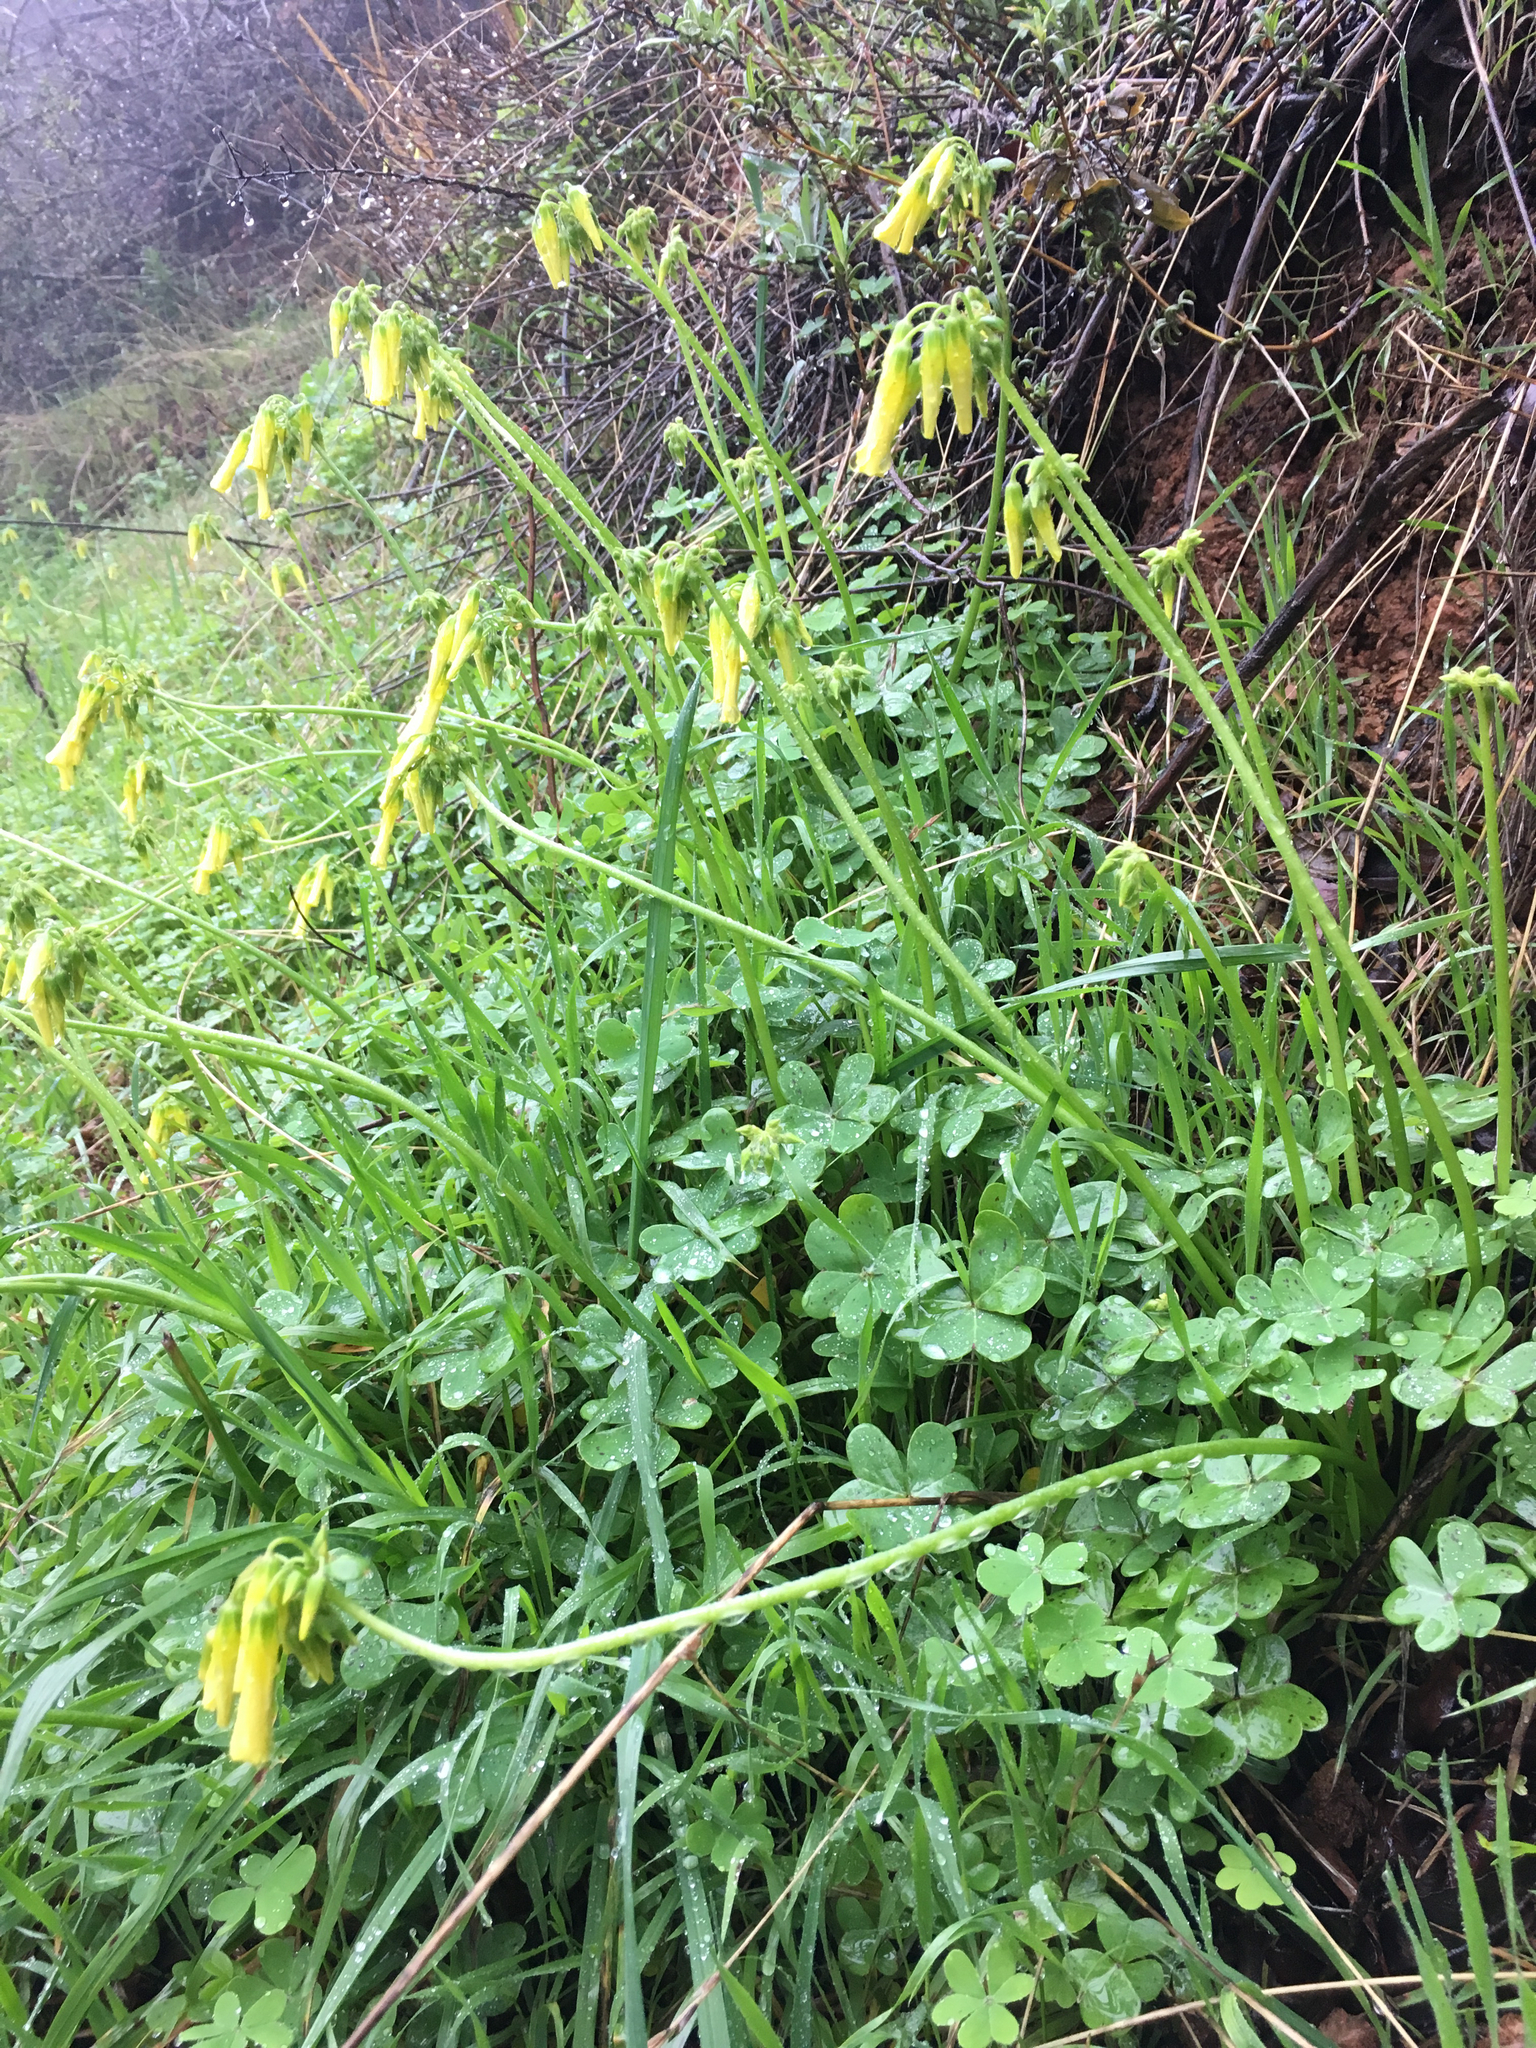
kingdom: Plantae
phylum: Tracheophyta
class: Magnoliopsida
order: Oxalidales
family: Oxalidaceae
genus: Oxalis
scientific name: Oxalis pes-caprae
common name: Bermuda-buttercup
